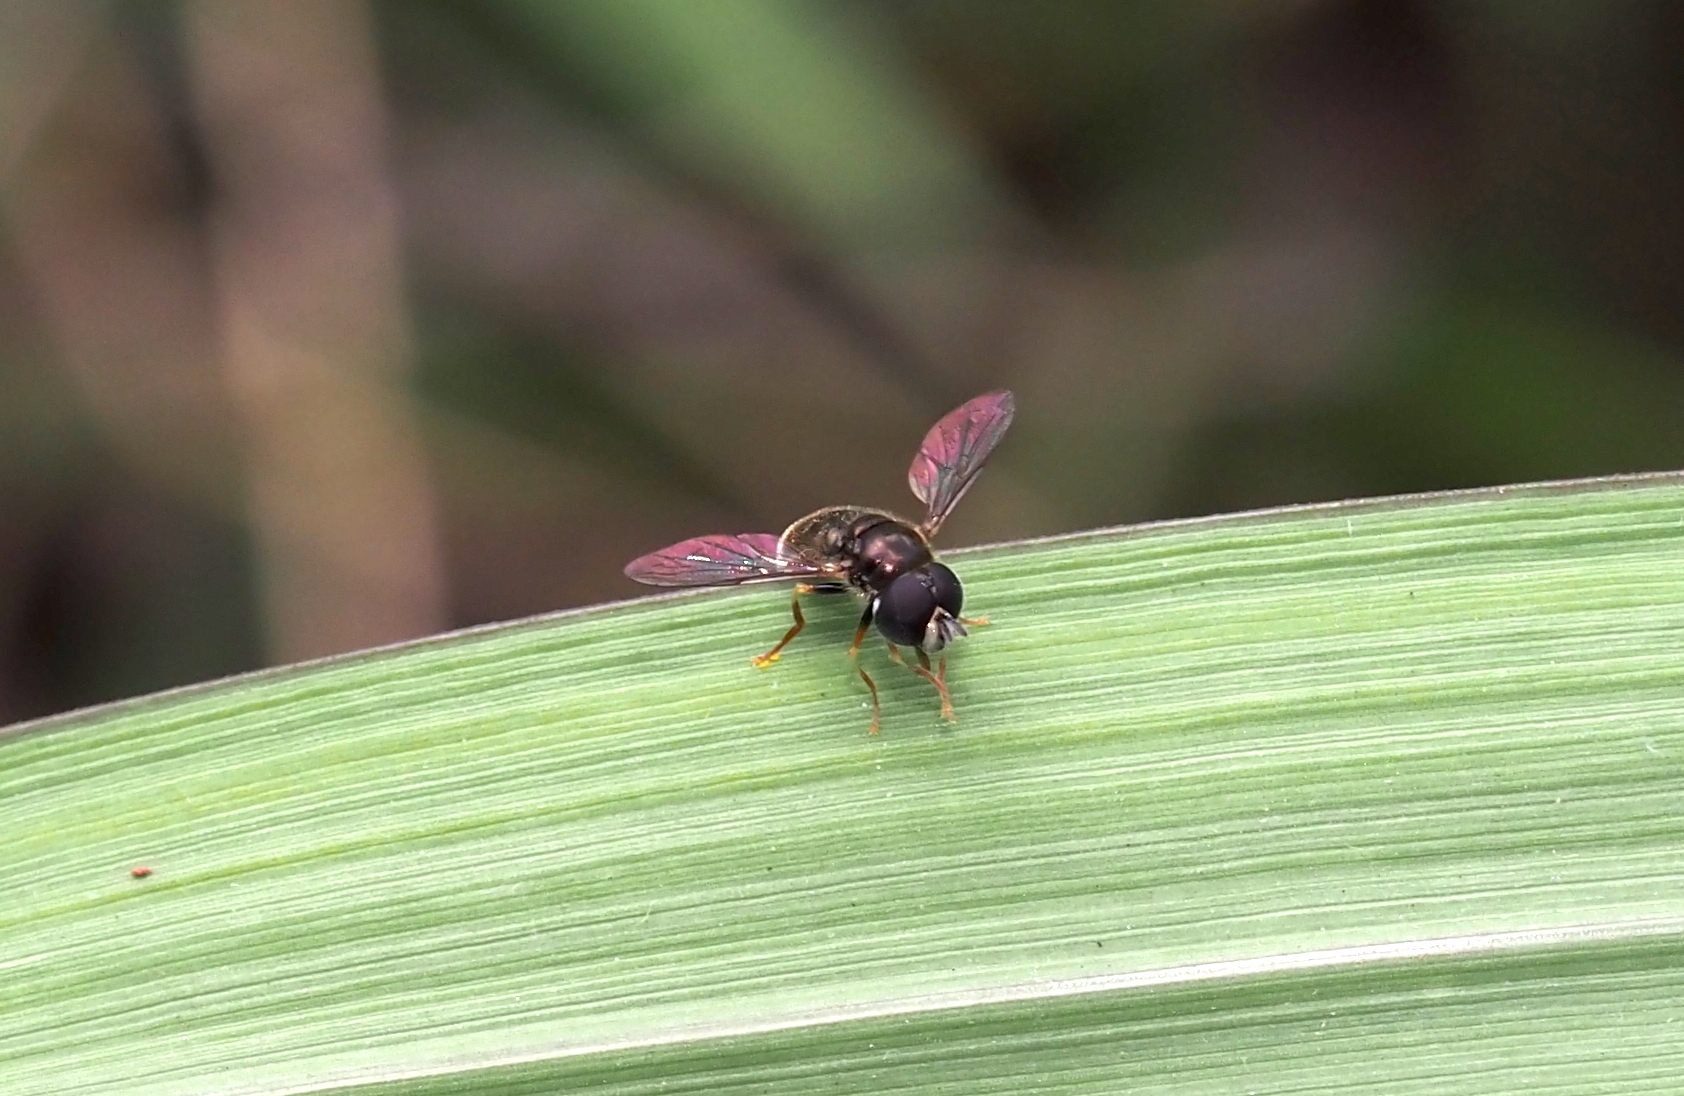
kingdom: Animalia
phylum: Arthropoda
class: Insecta
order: Diptera
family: Syrphidae
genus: Paragus
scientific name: Paragus haemorrhous
